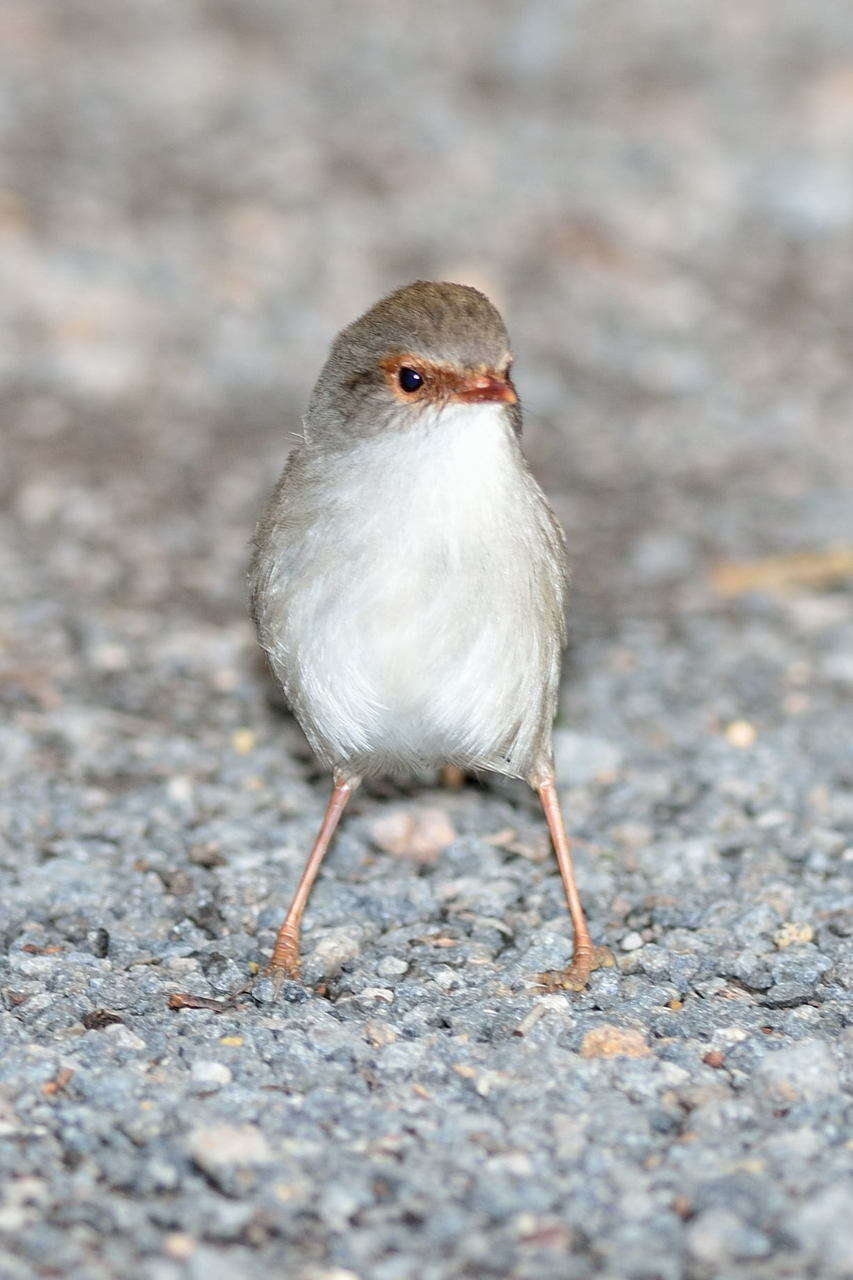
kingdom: Animalia
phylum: Chordata
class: Aves
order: Passeriformes
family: Maluridae
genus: Malurus
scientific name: Malurus cyaneus
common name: Superb fairywren
